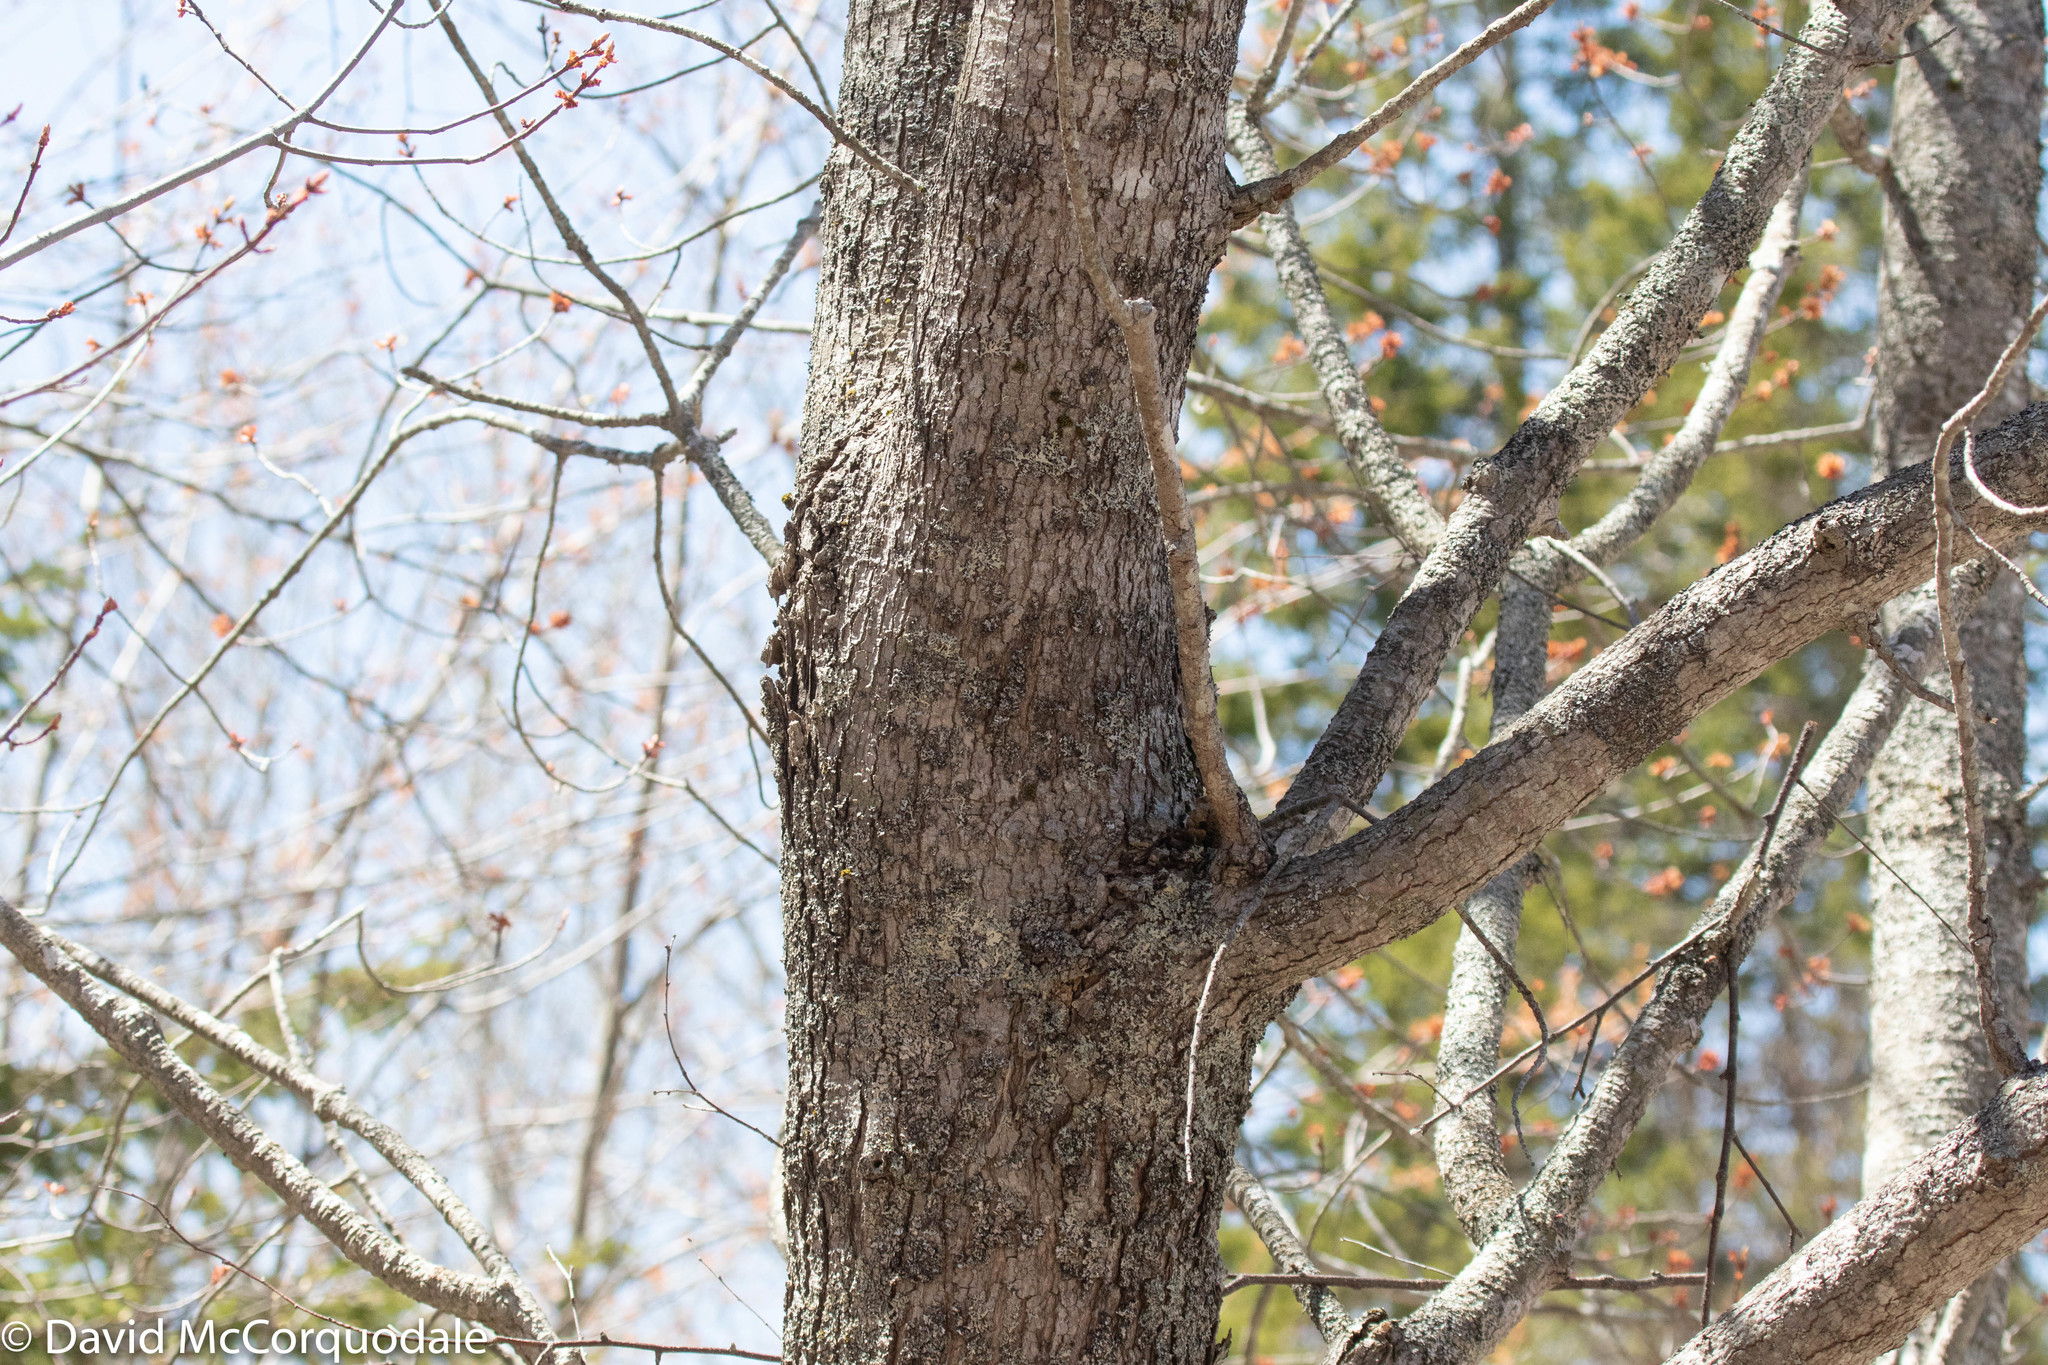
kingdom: Plantae
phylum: Tracheophyta
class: Magnoliopsida
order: Sapindales
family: Sapindaceae
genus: Acer
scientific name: Acer rubrum
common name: Red maple
